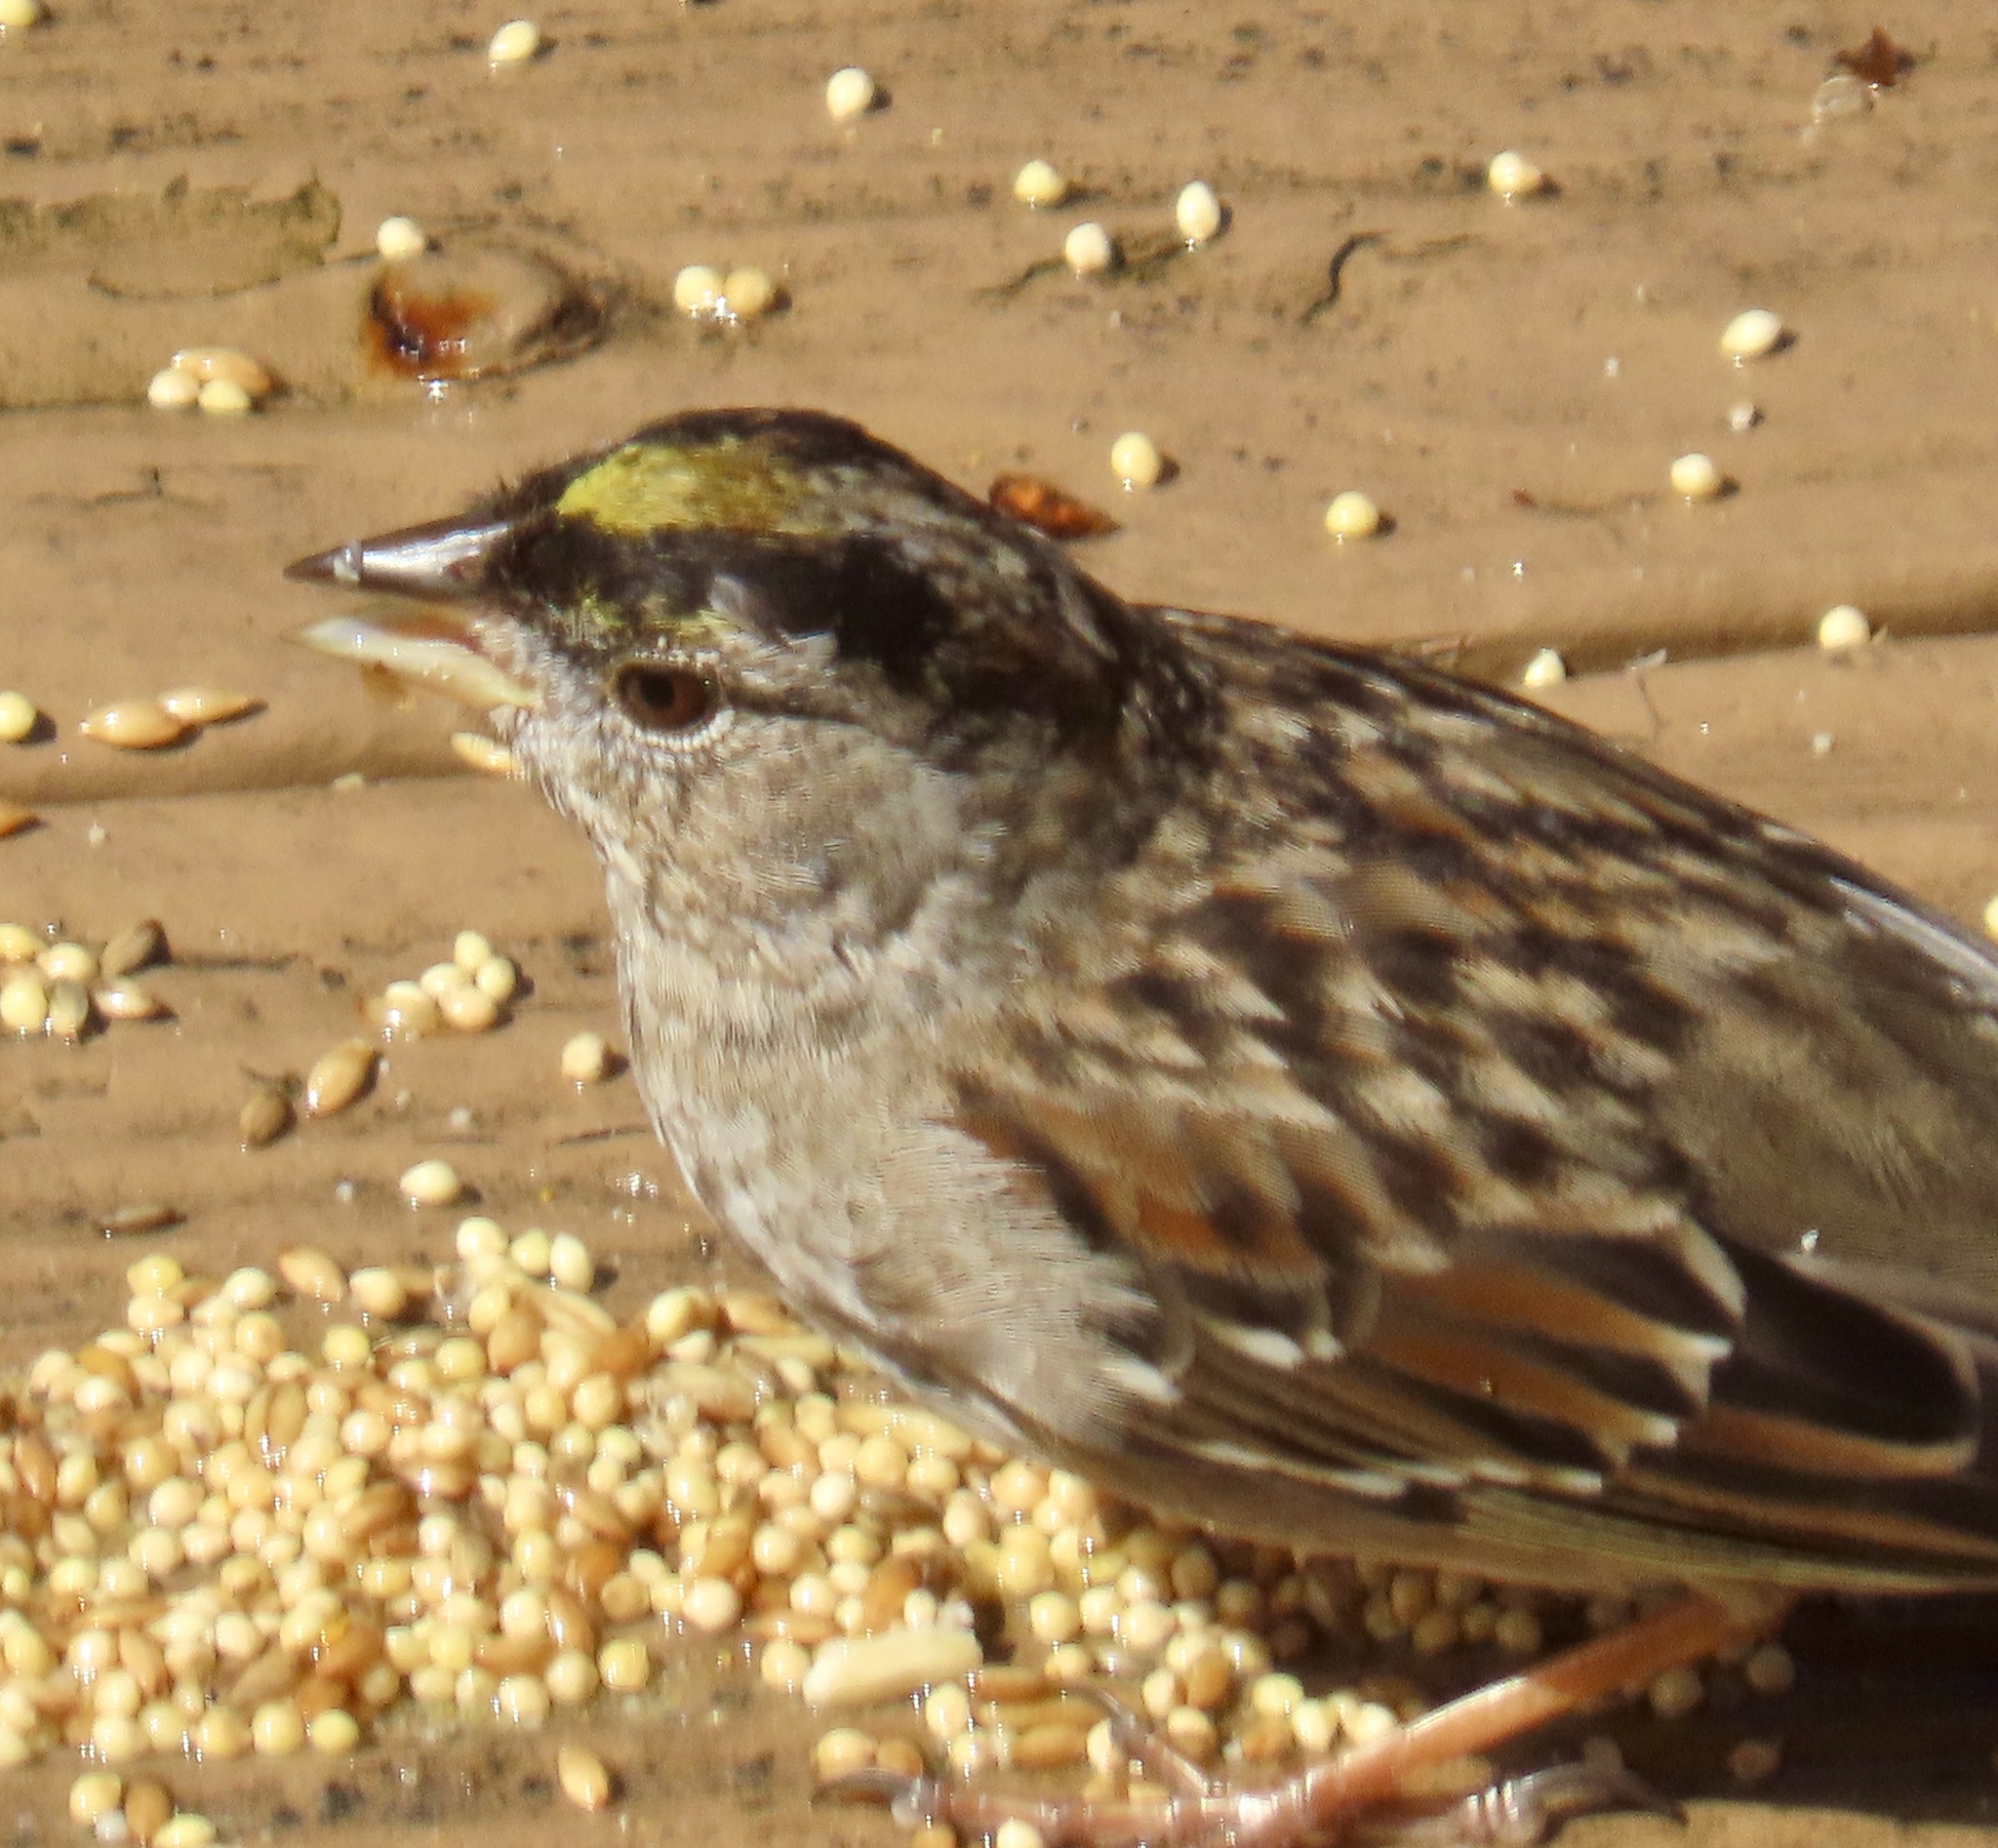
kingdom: Animalia
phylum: Chordata
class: Aves
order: Passeriformes
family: Passerellidae
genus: Zonotrichia
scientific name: Zonotrichia atricapilla
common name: Golden-crowned sparrow
